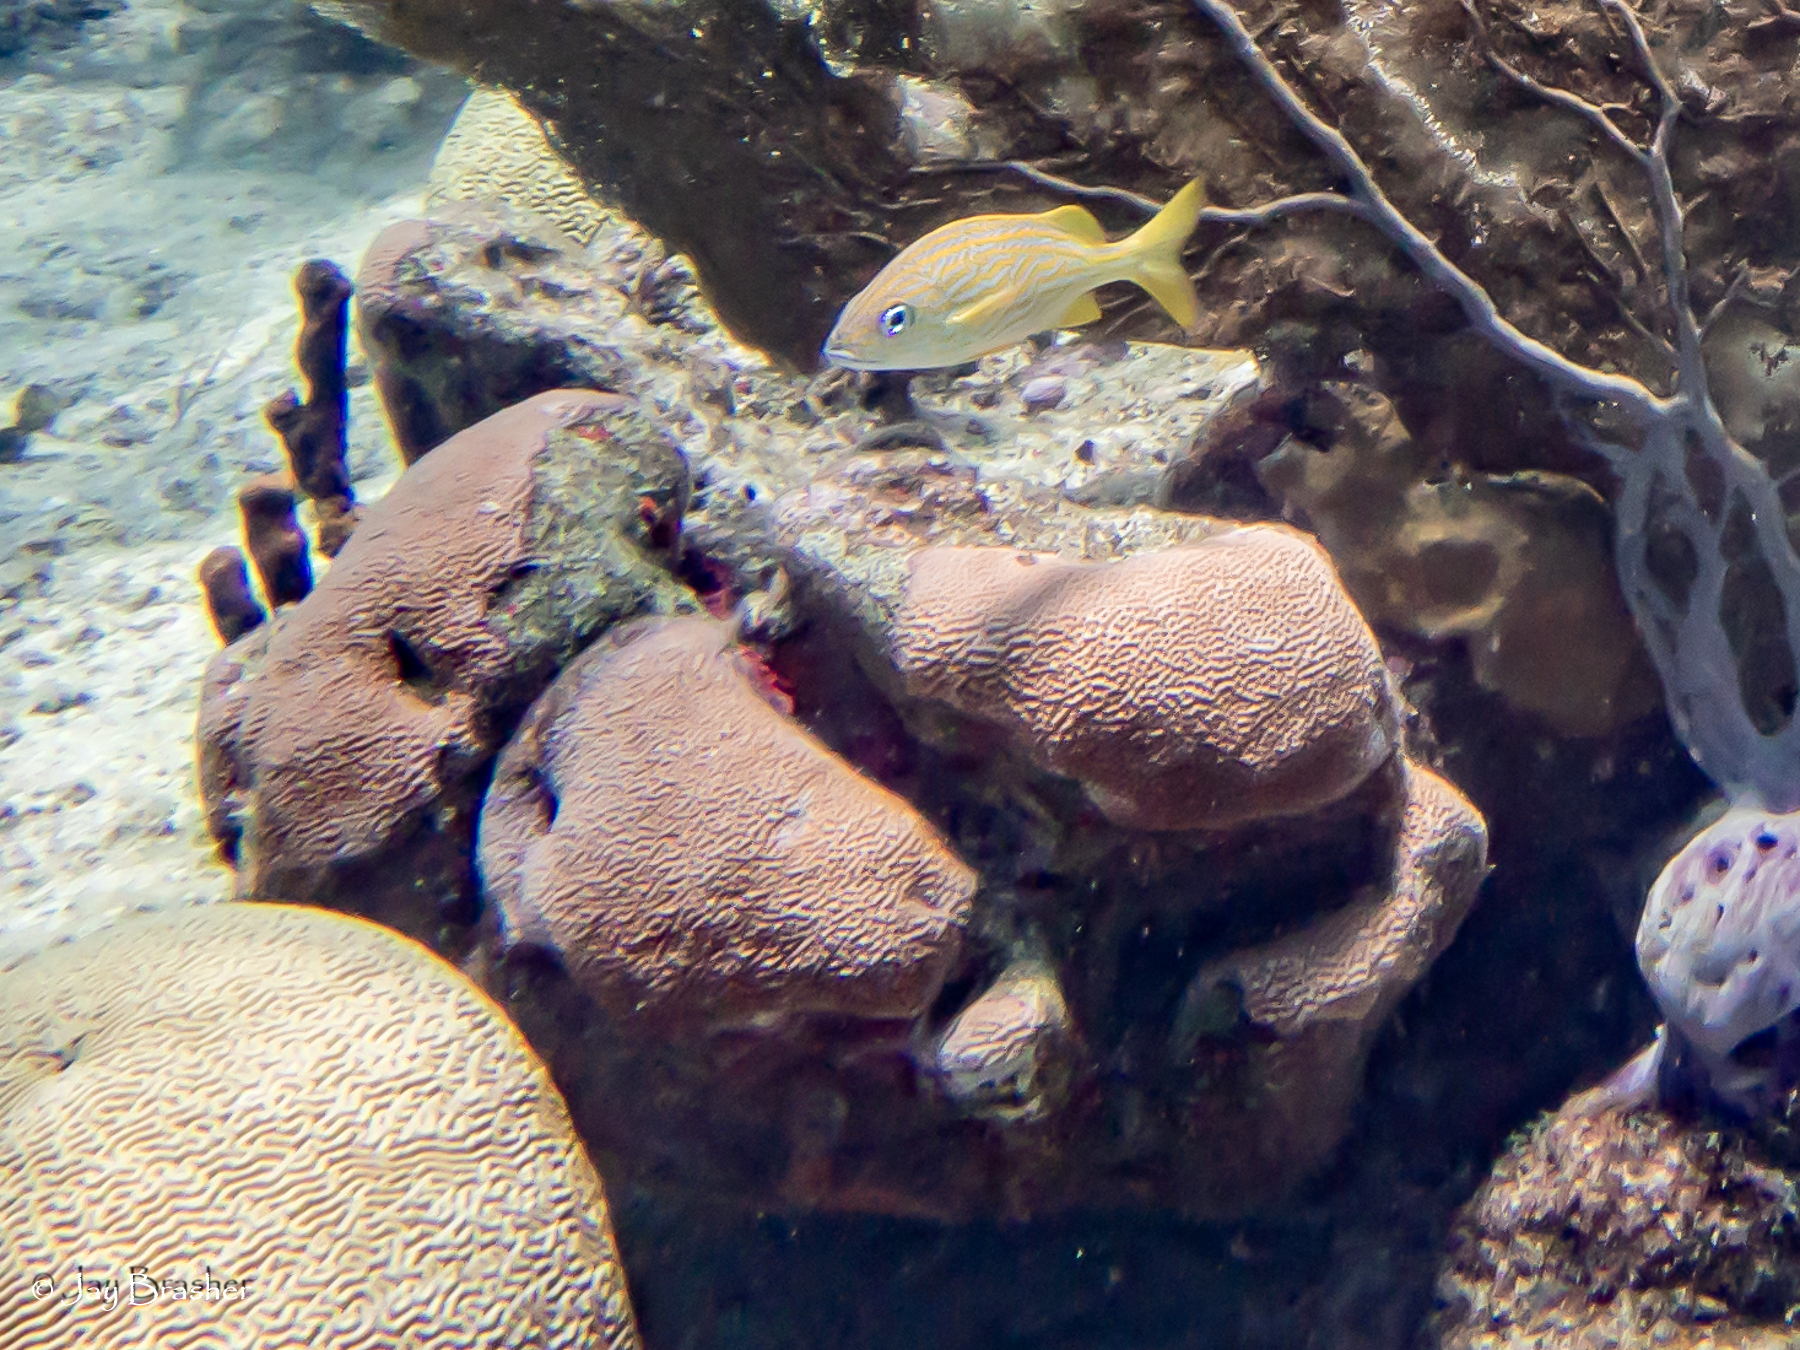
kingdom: Animalia
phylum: Chordata
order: Perciformes
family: Haemulidae
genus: Haemulon
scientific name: Haemulon flavolineatum
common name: French grunt
